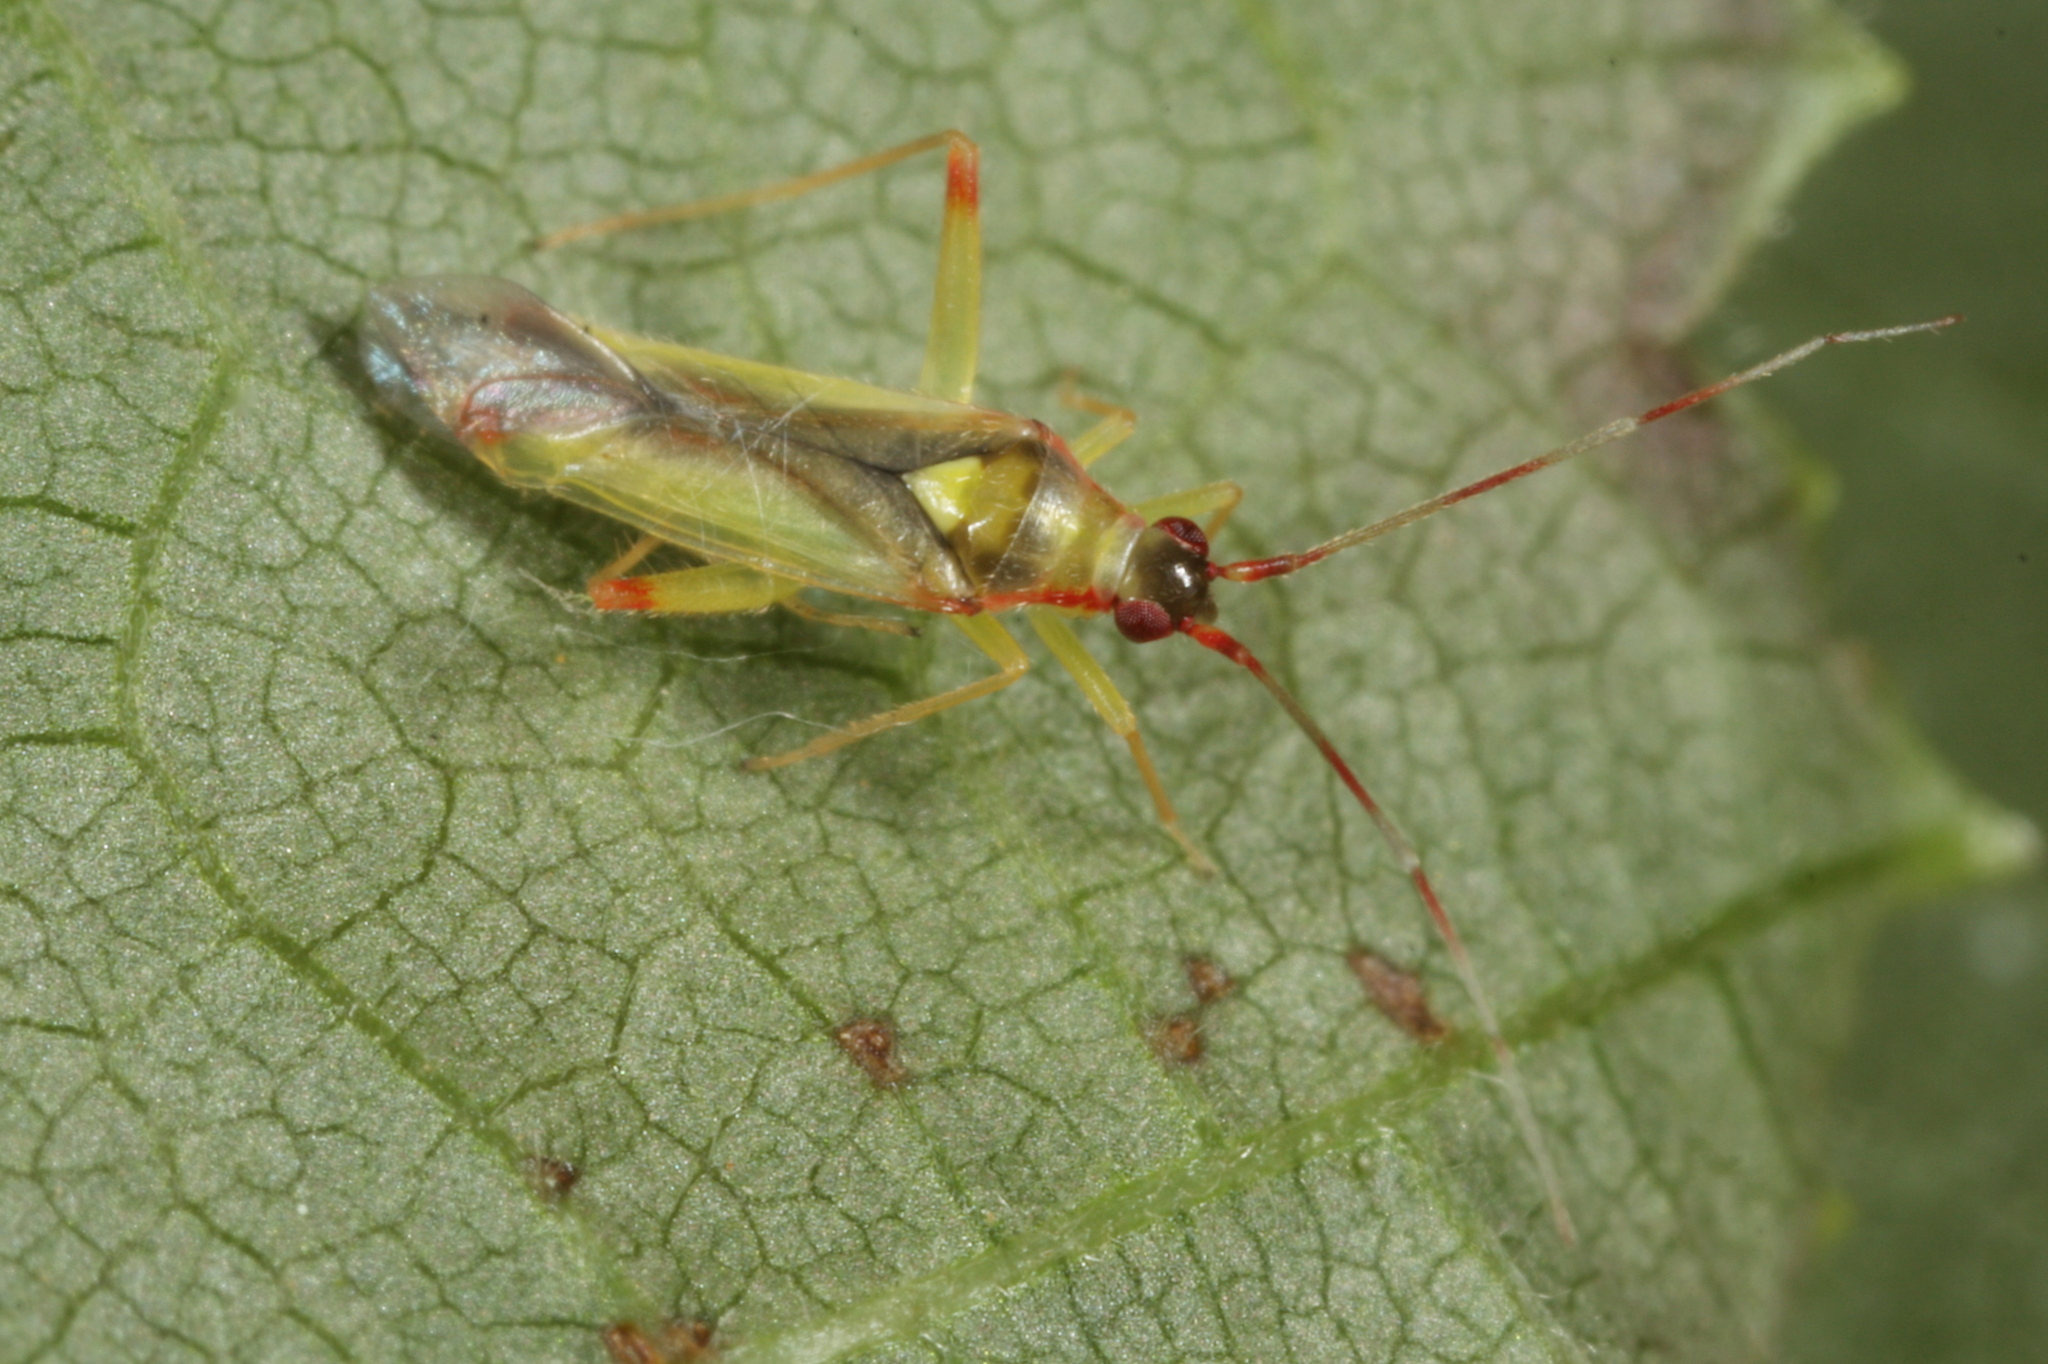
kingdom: Animalia
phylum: Arthropoda
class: Insecta
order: Hemiptera
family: Miridae
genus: Campyloneura
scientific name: Campyloneura virgula
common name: Predatory bug
